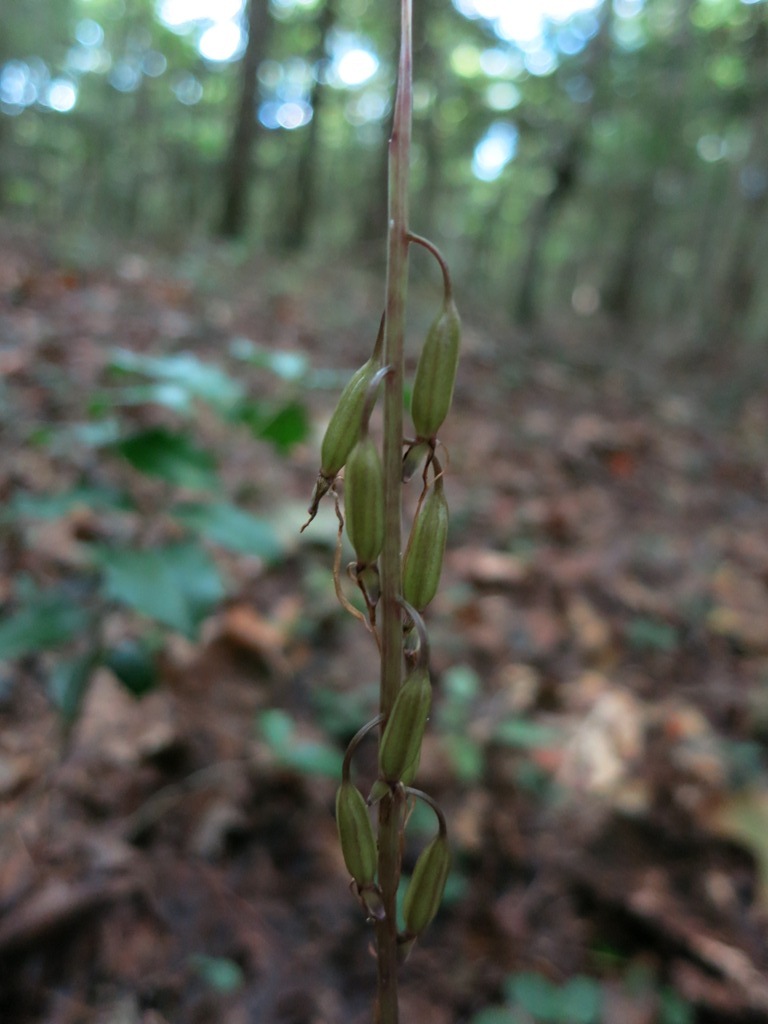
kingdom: Plantae
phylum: Tracheophyta
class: Liliopsida
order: Asparagales
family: Orchidaceae
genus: Tipularia
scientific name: Tipularia discolor
